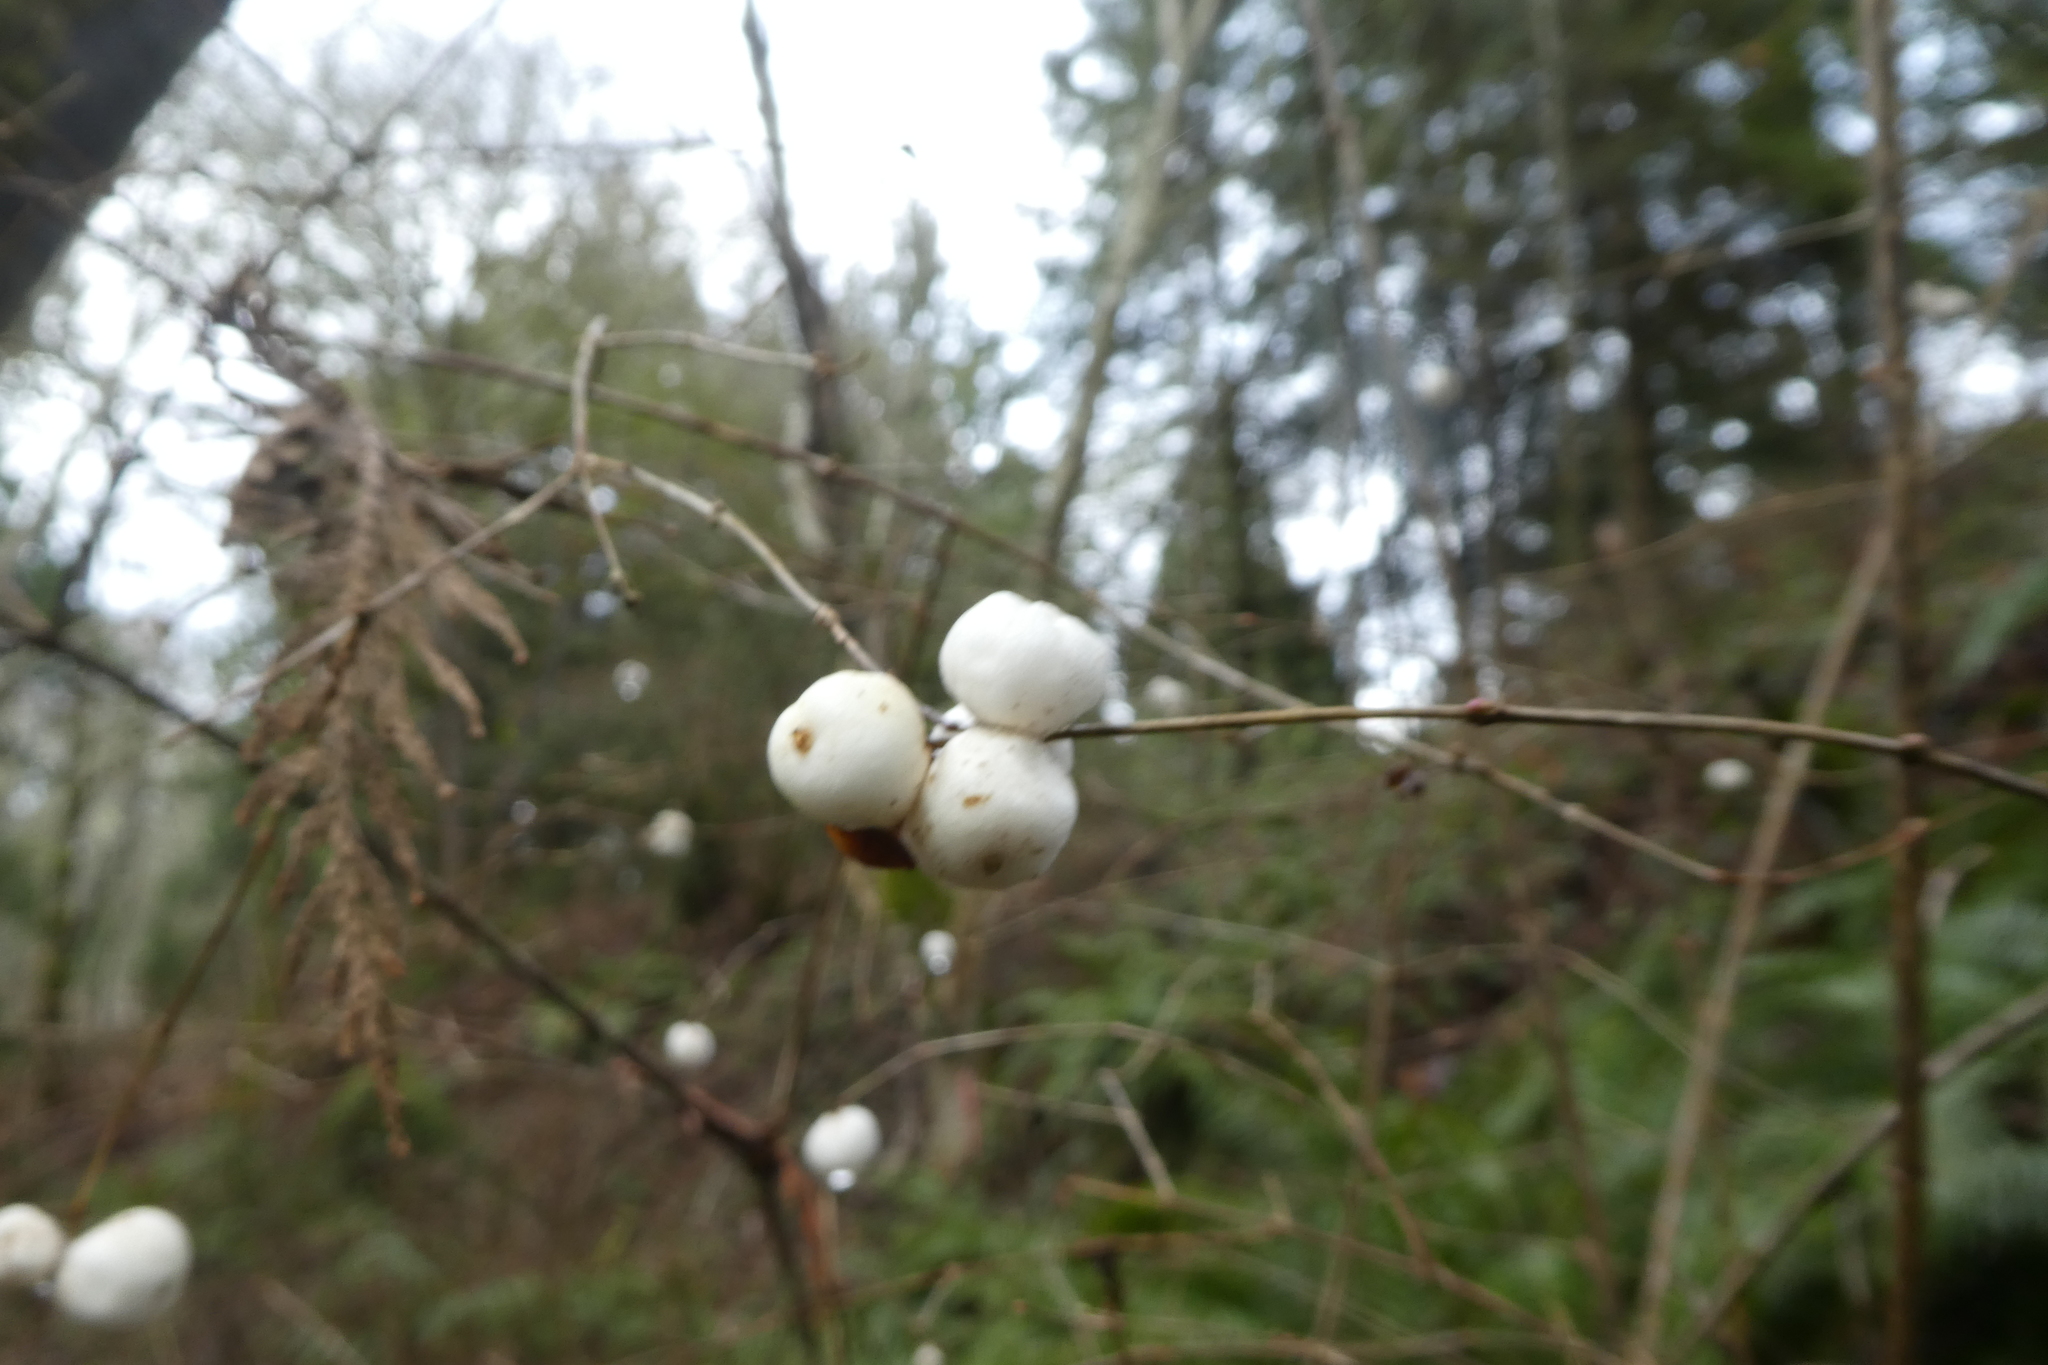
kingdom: Plantae
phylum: Tracheophyta
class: Magnoliopsida
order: Dipsacales
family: Caprifoliaceae
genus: Symphoricarpos
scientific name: Symphoricarpos albus
